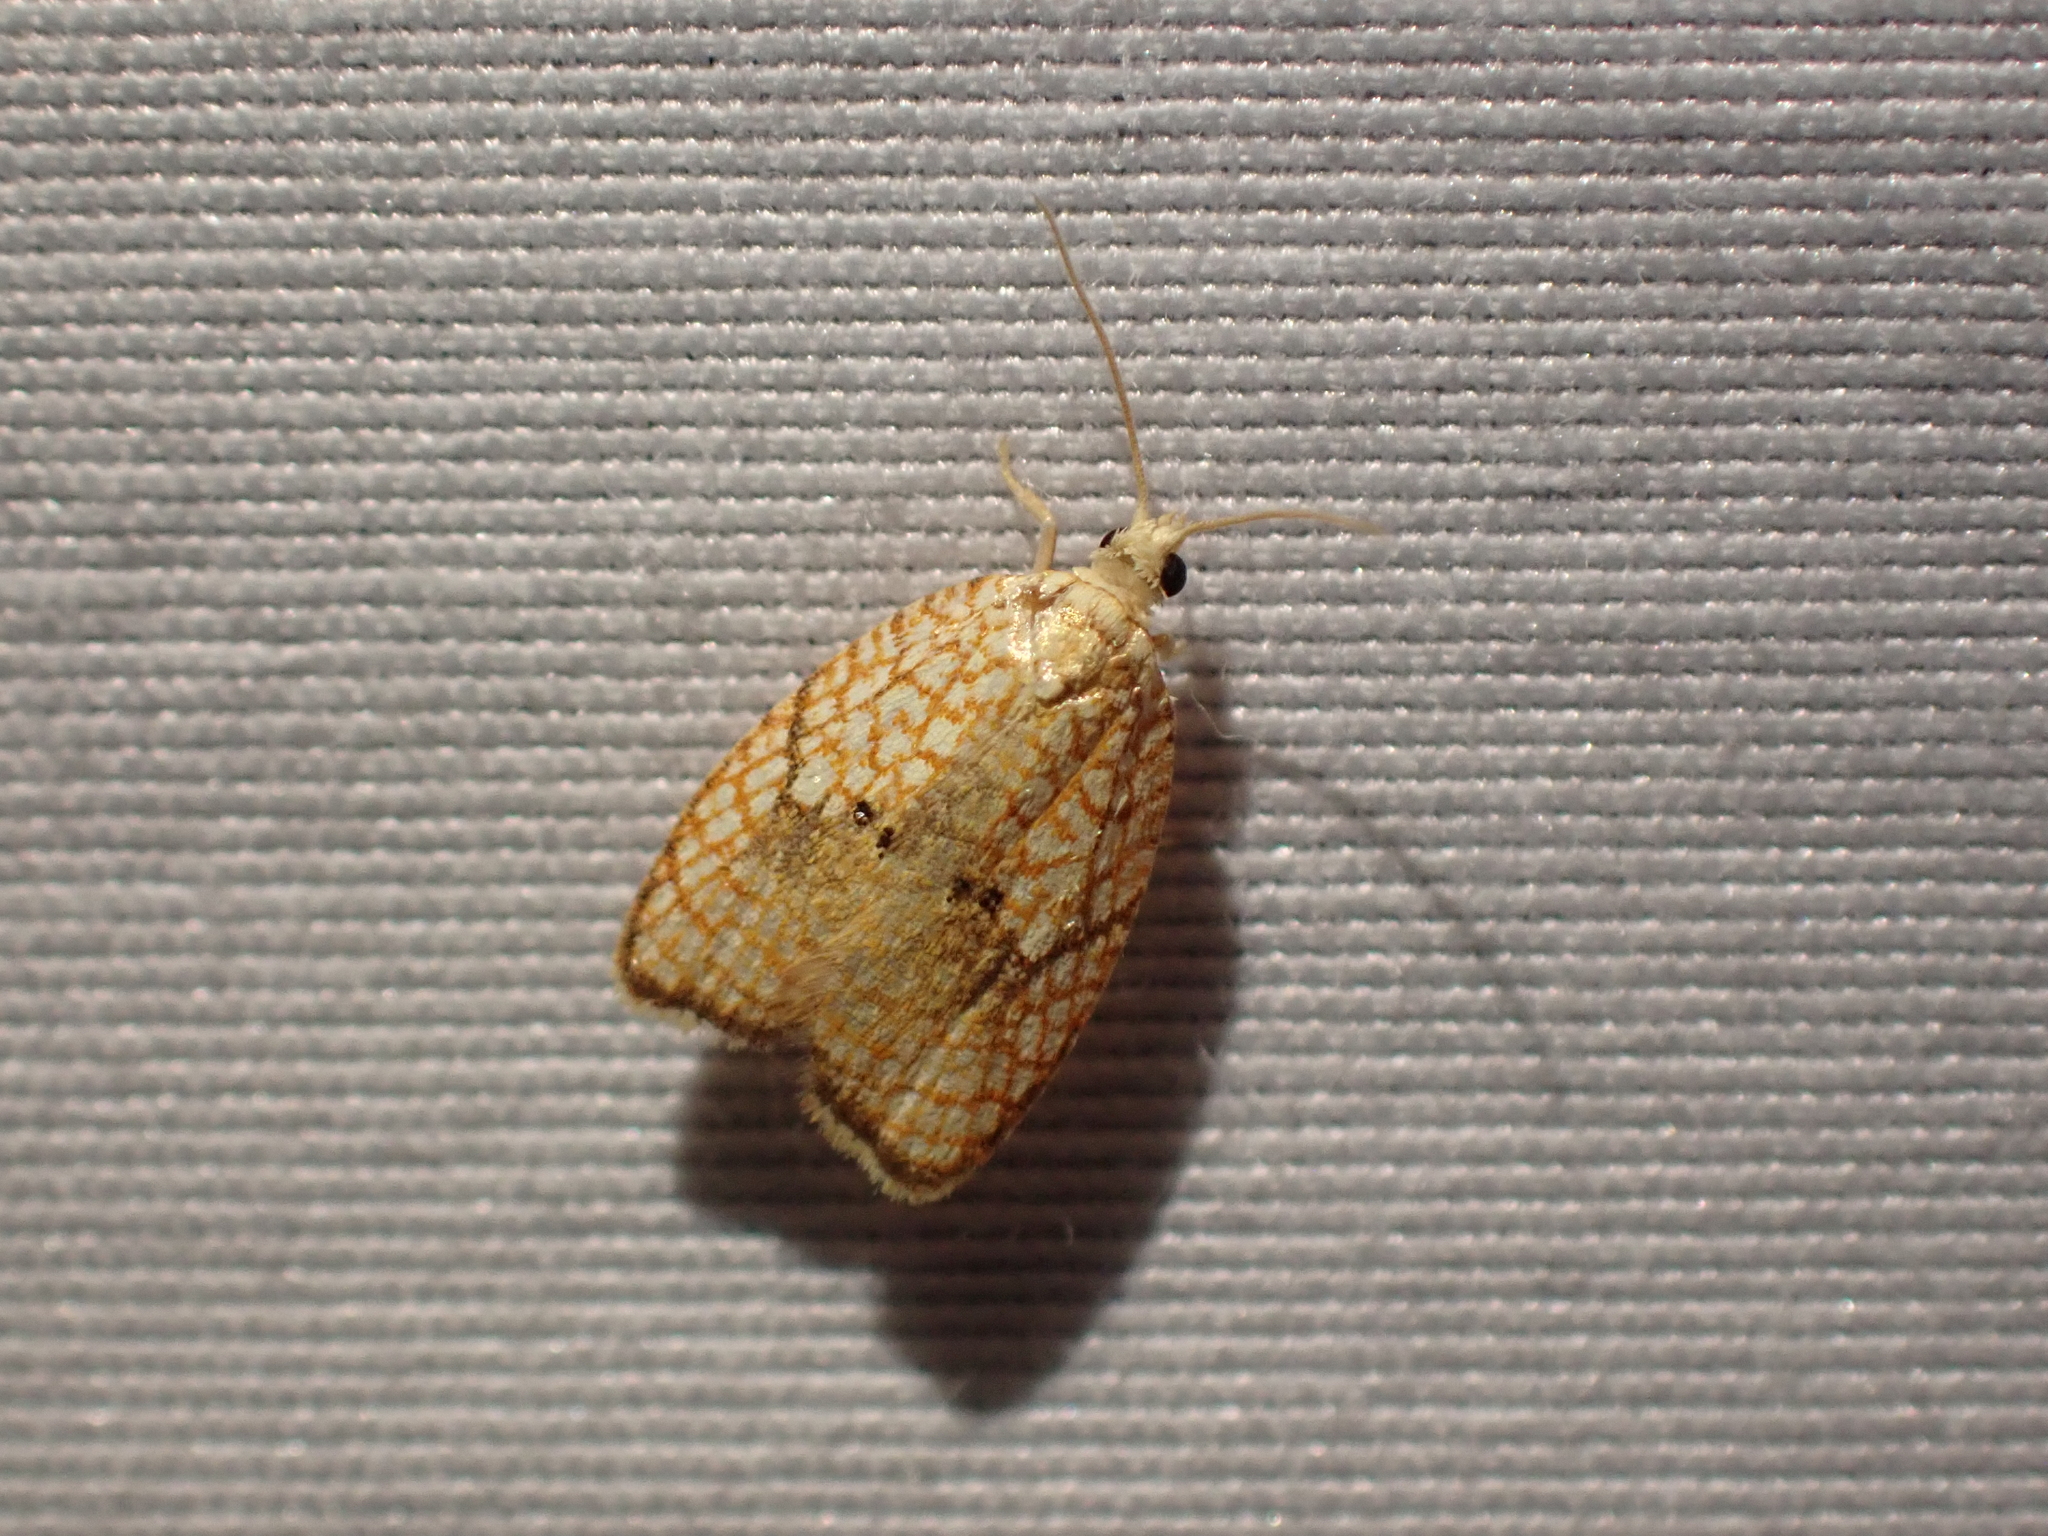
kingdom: Animalia
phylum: Arthropoda
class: Insecta
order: Lepidoptera
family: Tortricidae
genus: Acleris
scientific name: Acleris forsskaleana
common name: Maple button
